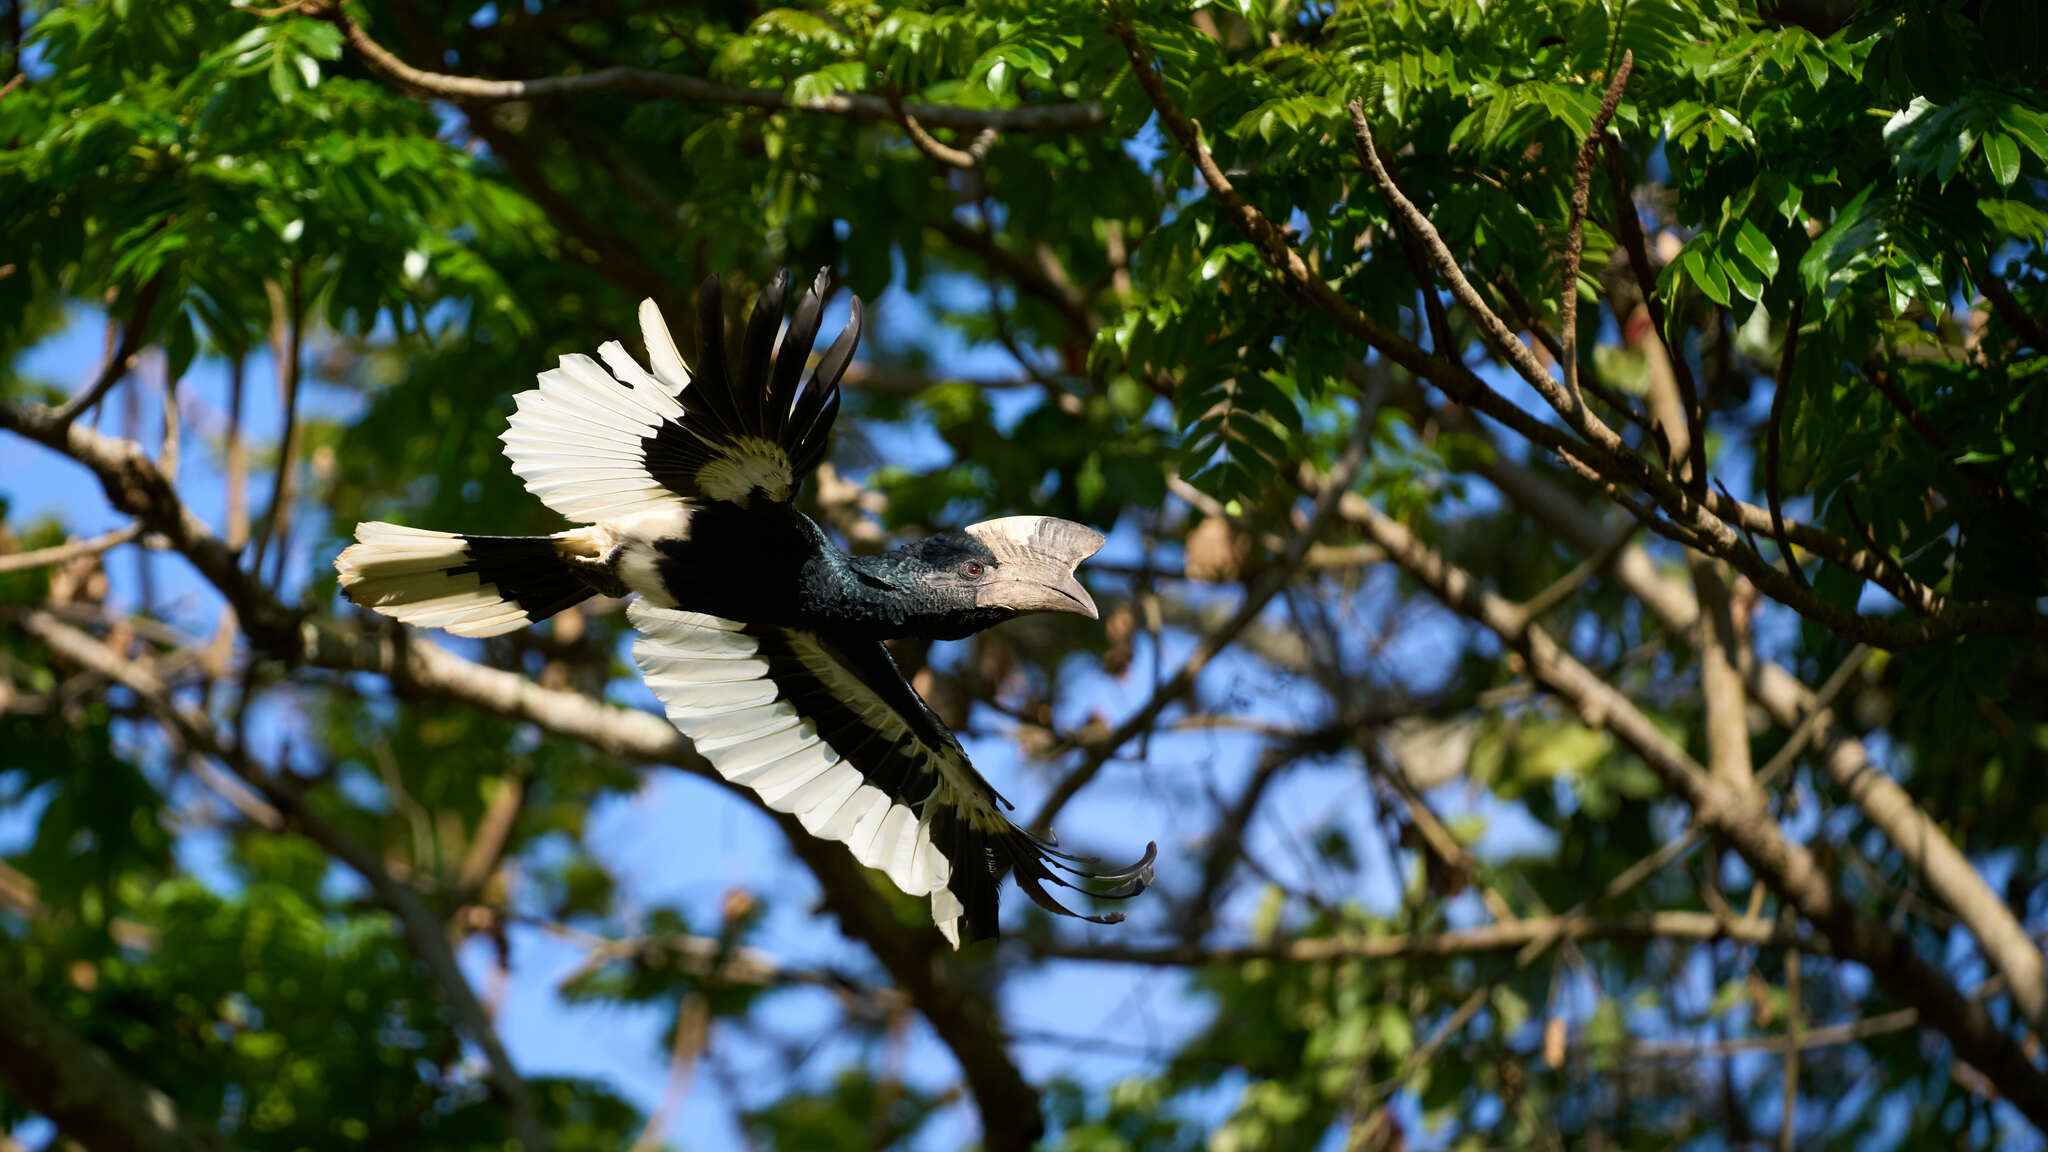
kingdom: Animalia
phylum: Chordata
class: Aves
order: Bucerotiformes
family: Bucerotidae
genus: Bycanistes
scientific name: Bycanistes subcylindricus
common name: Black-and-white-casqued hornbill
